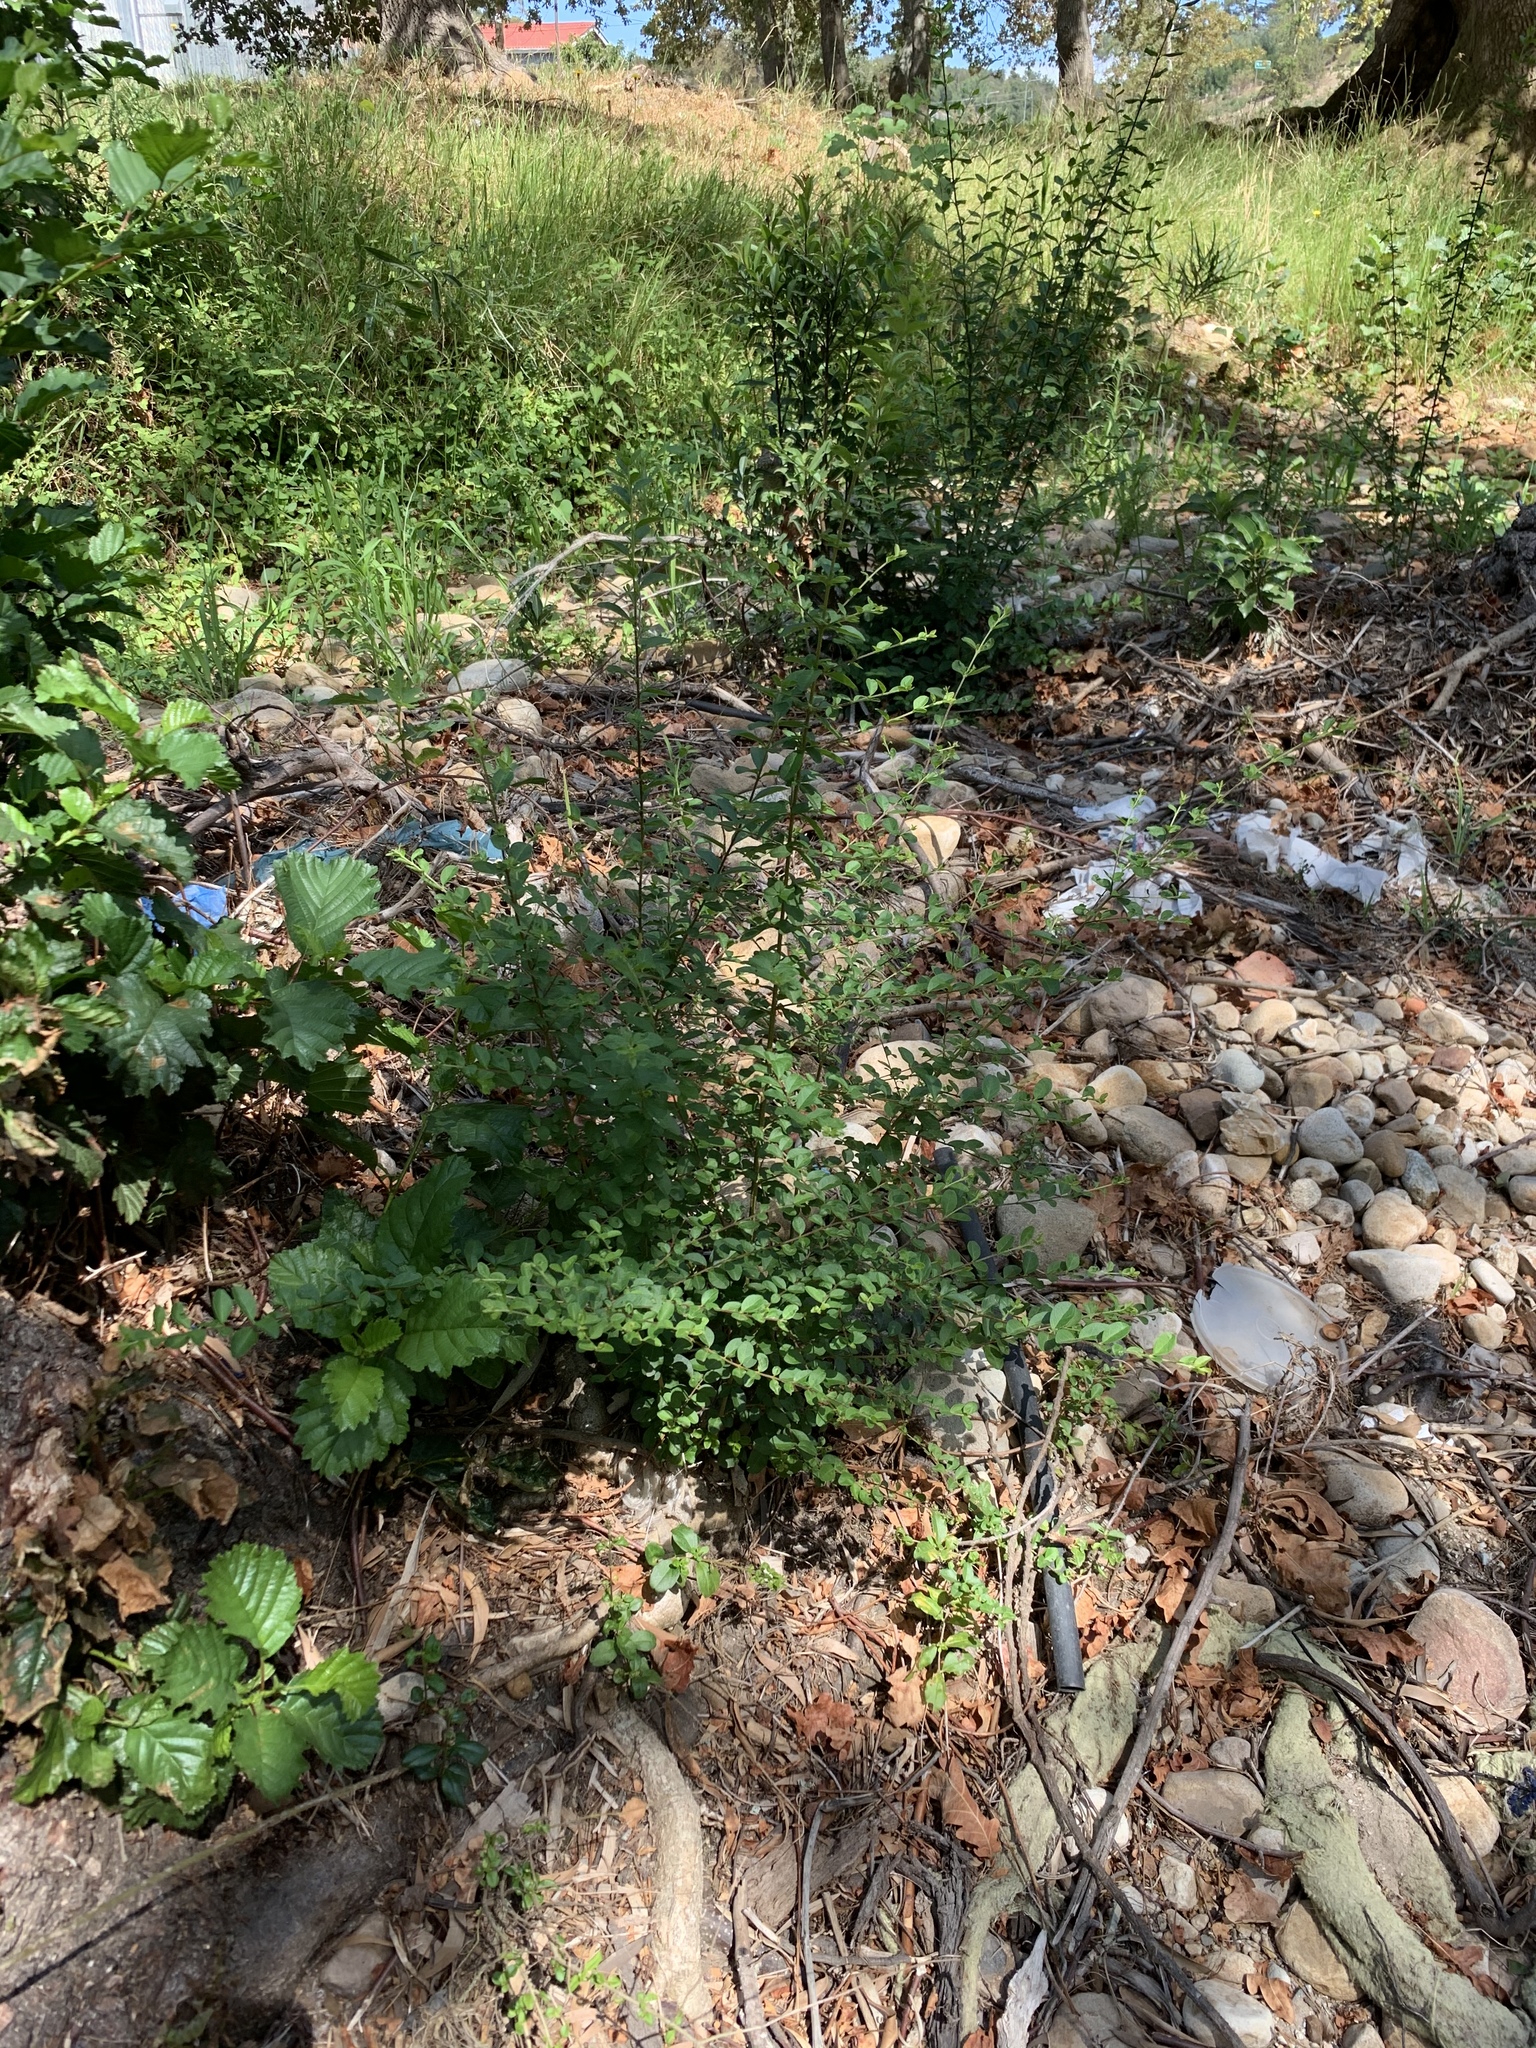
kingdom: Plantae
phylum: Tracheophyta
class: Magnoliopsida
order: Lamiales
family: Oleaceae
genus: Ligustrum
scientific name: Ligustrum sinense
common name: Chinese privet
